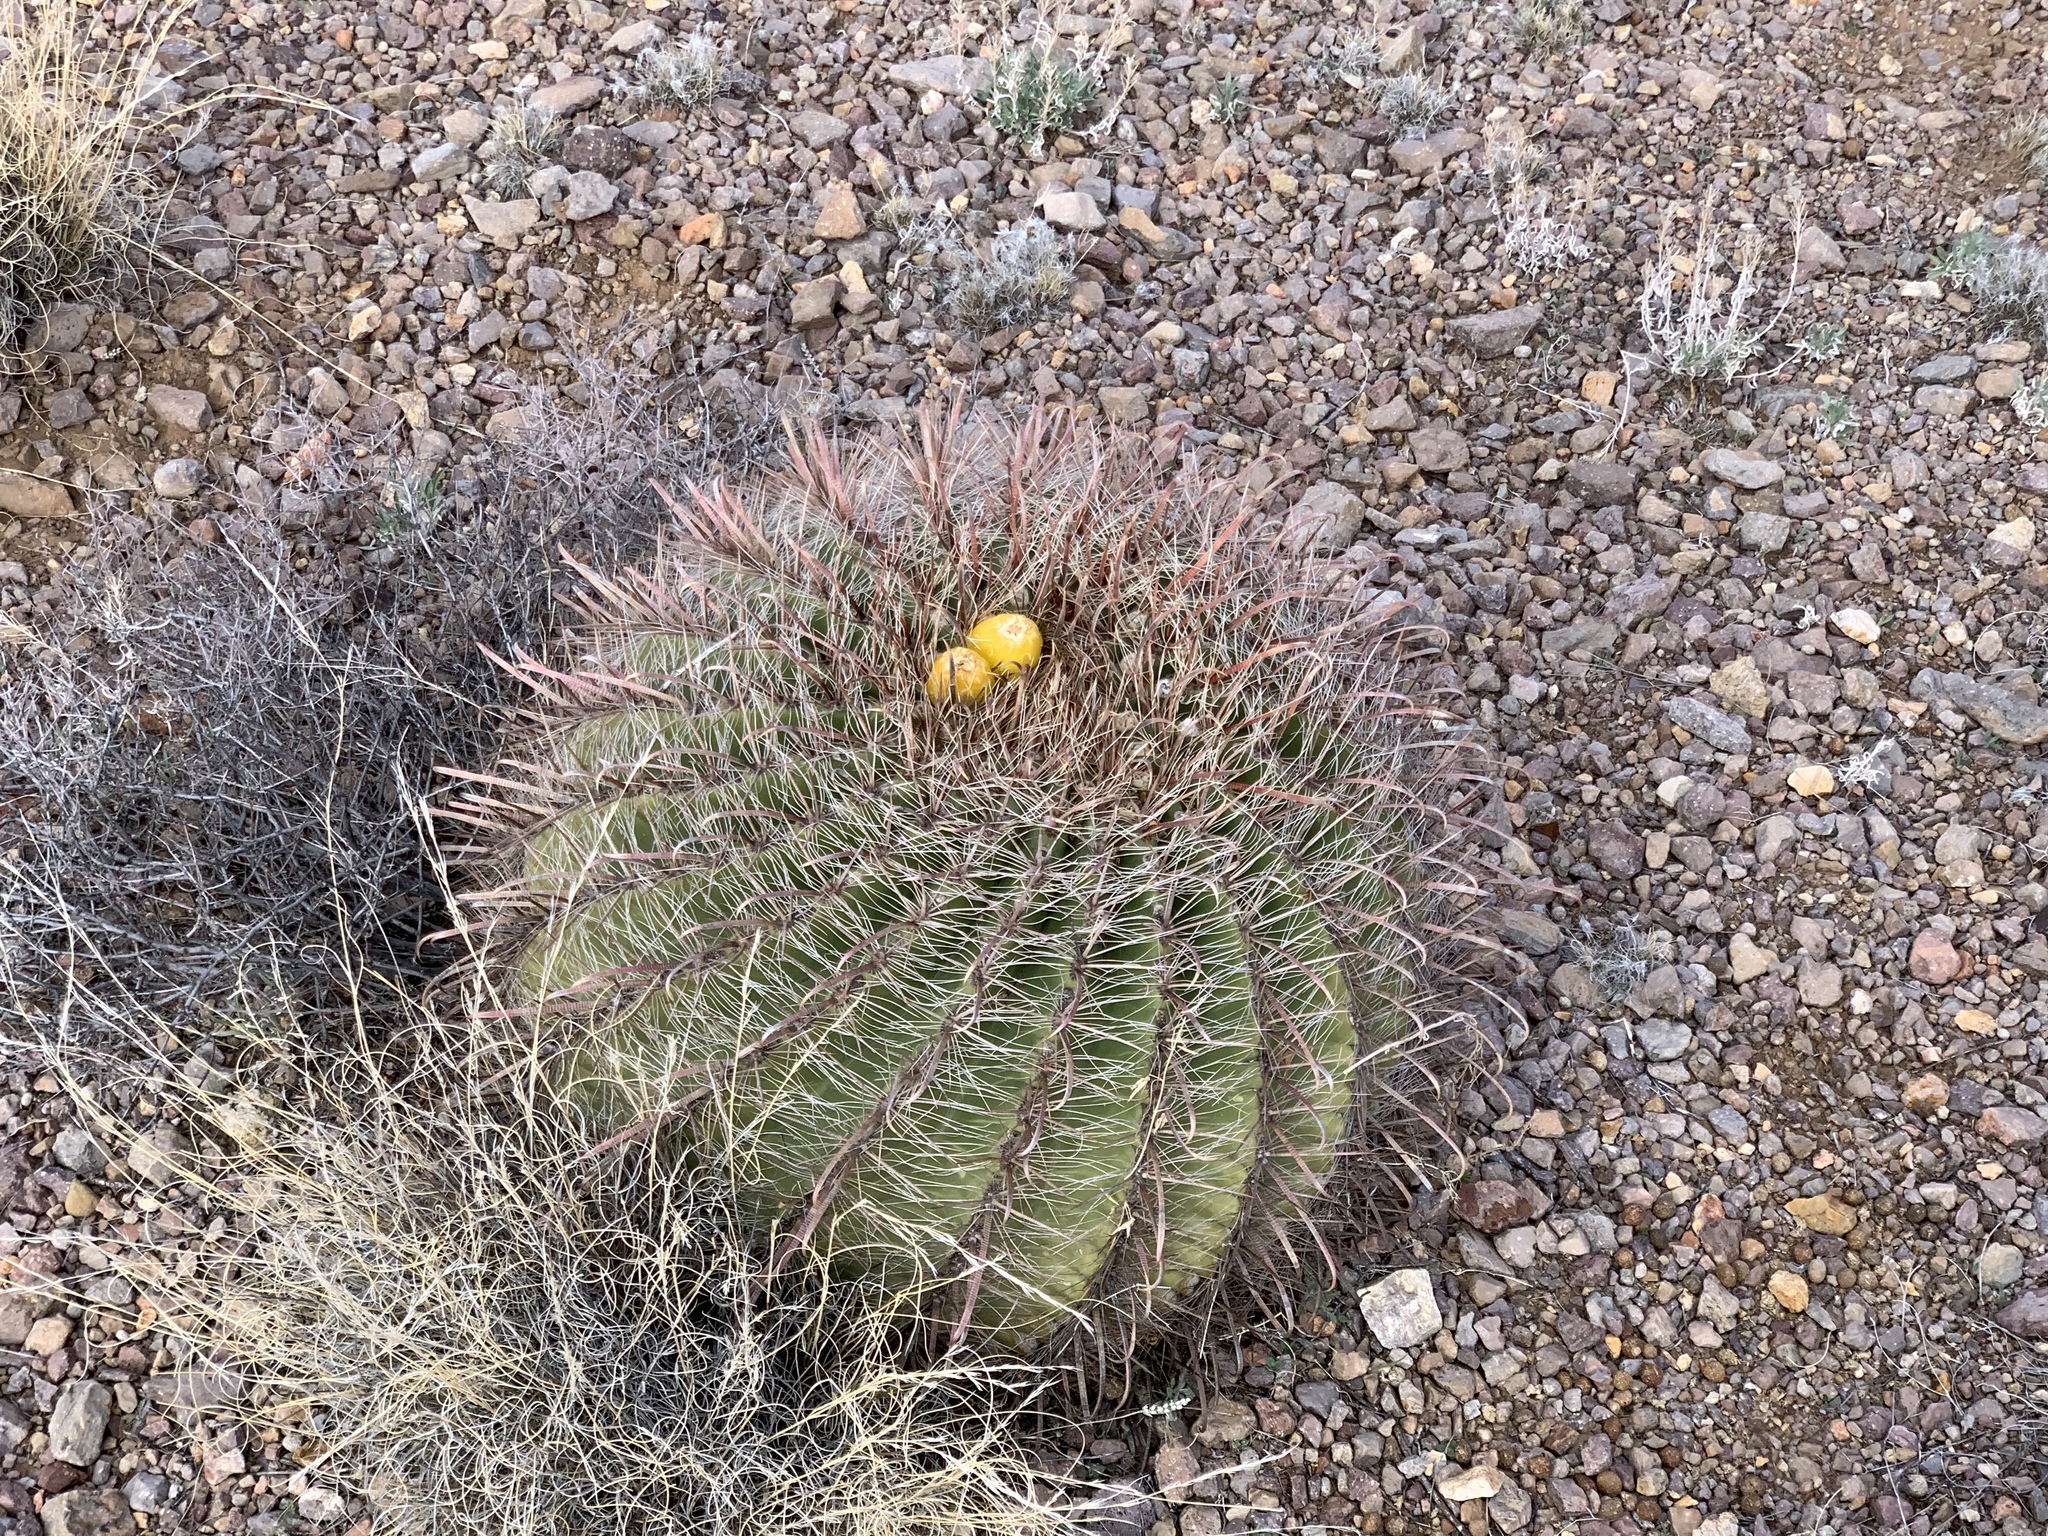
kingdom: Plantae
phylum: Tracheophyta
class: Magnoliopsida
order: Caryophyllales
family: Cactaceae
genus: Ferocactus
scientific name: Ferocactus wislizeni
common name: Candy barrel cactus
